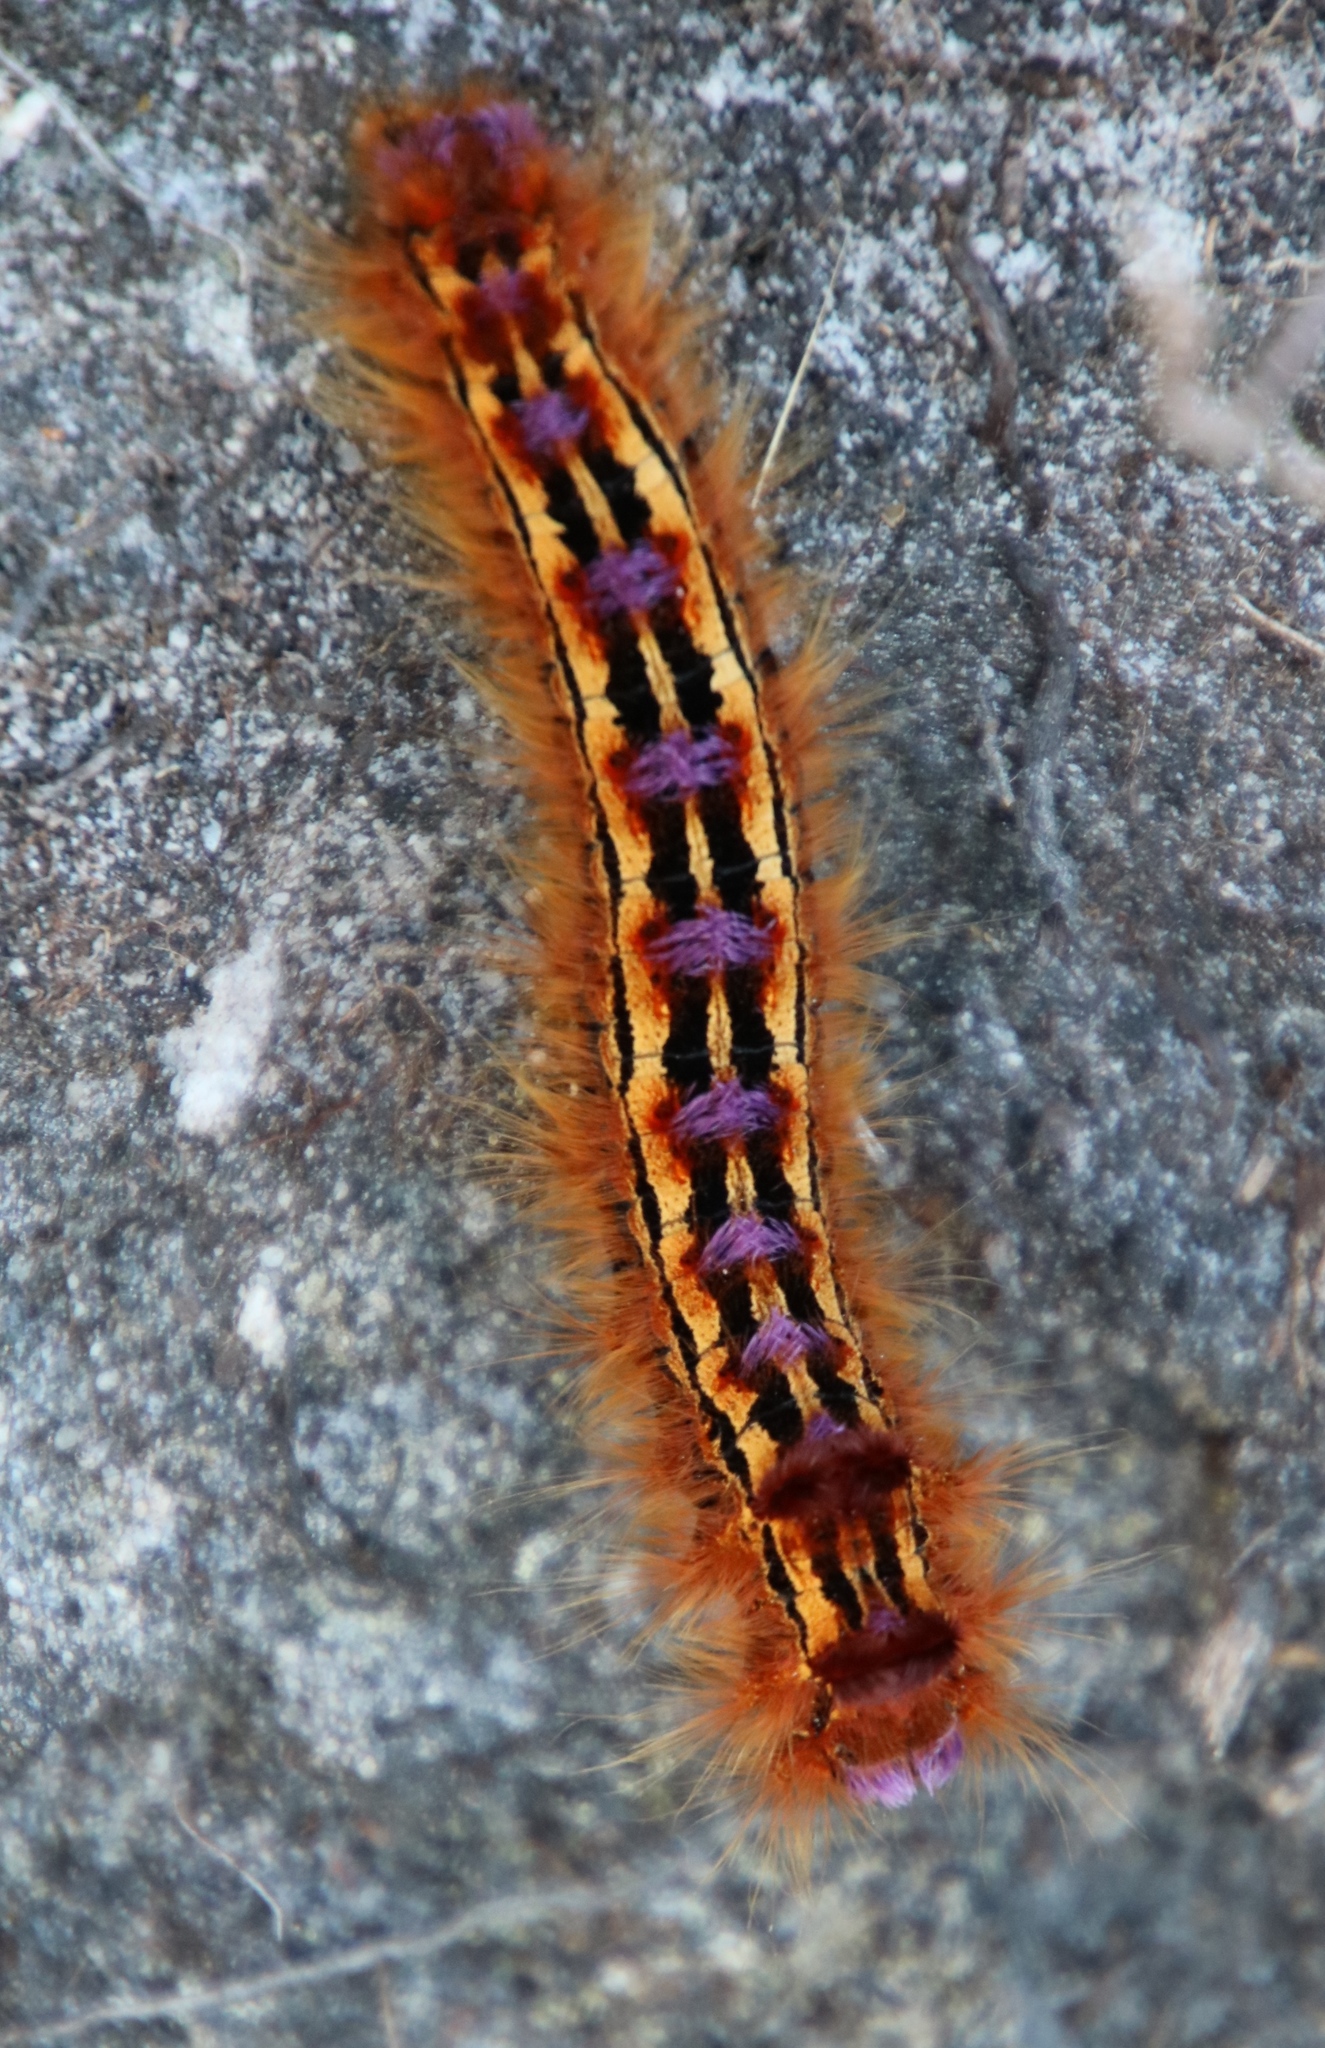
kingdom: Animalia
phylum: Arthropoda
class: Insecta
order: Lepidoptera
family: Lasiocampidae
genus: Eutricha
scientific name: Eutricha bifascia
